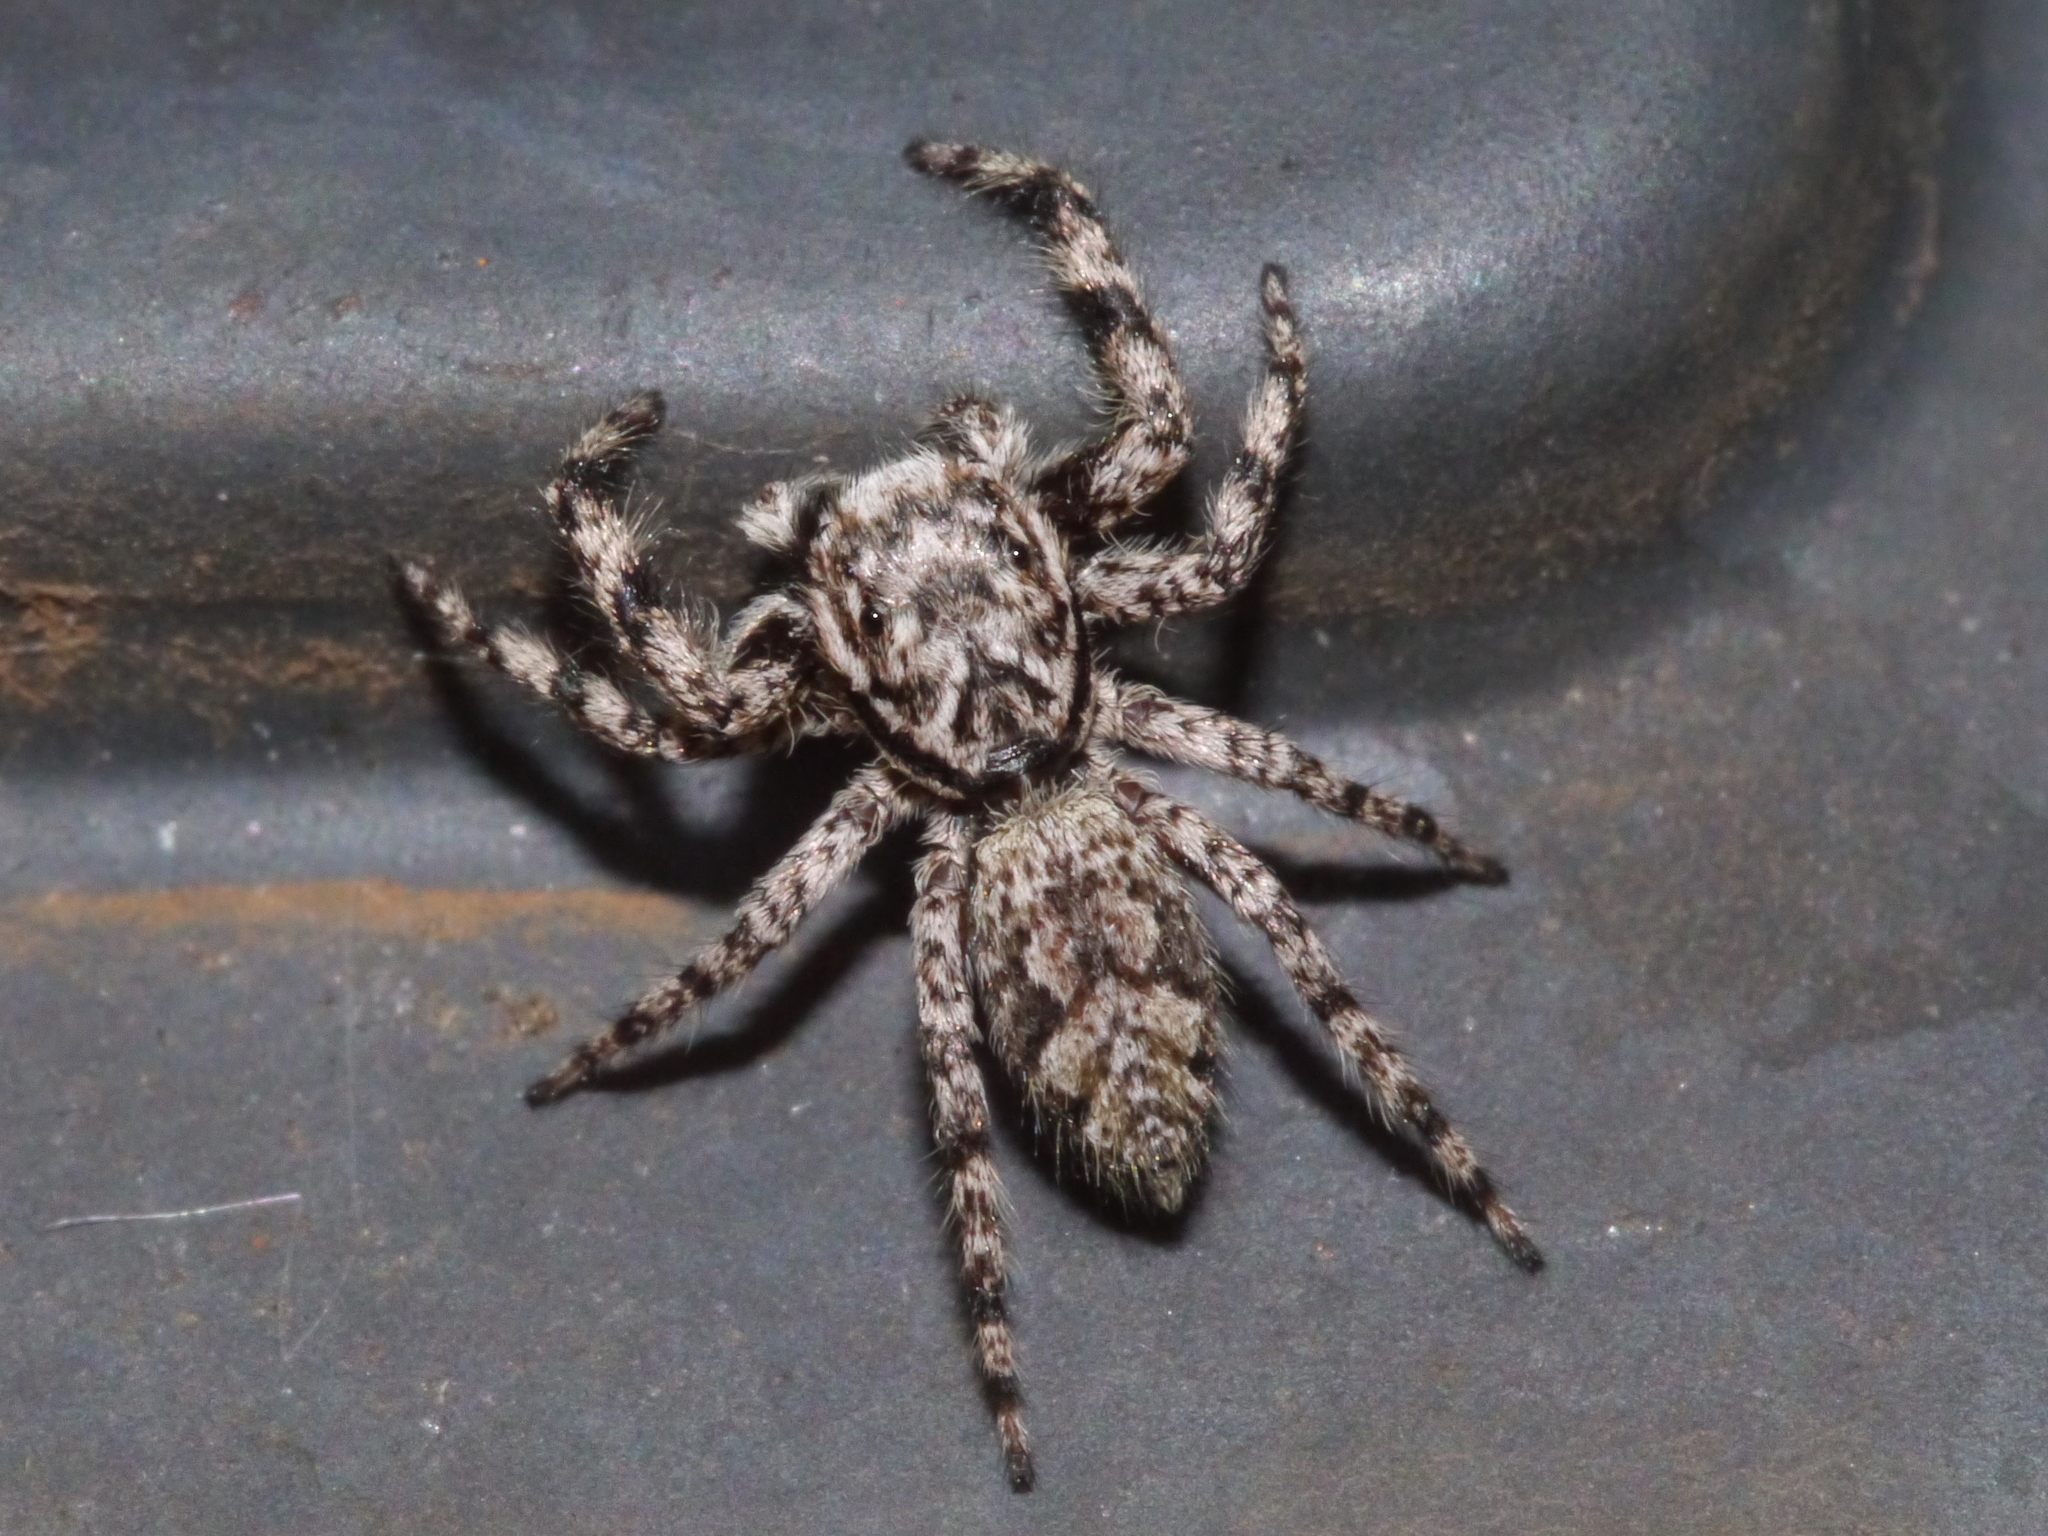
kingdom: Animalia
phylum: Arthropoda
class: Arachnida
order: Araneae
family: Salticidae
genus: Platycryptus
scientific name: Platycryptus undatus
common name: Tan jumping spider
